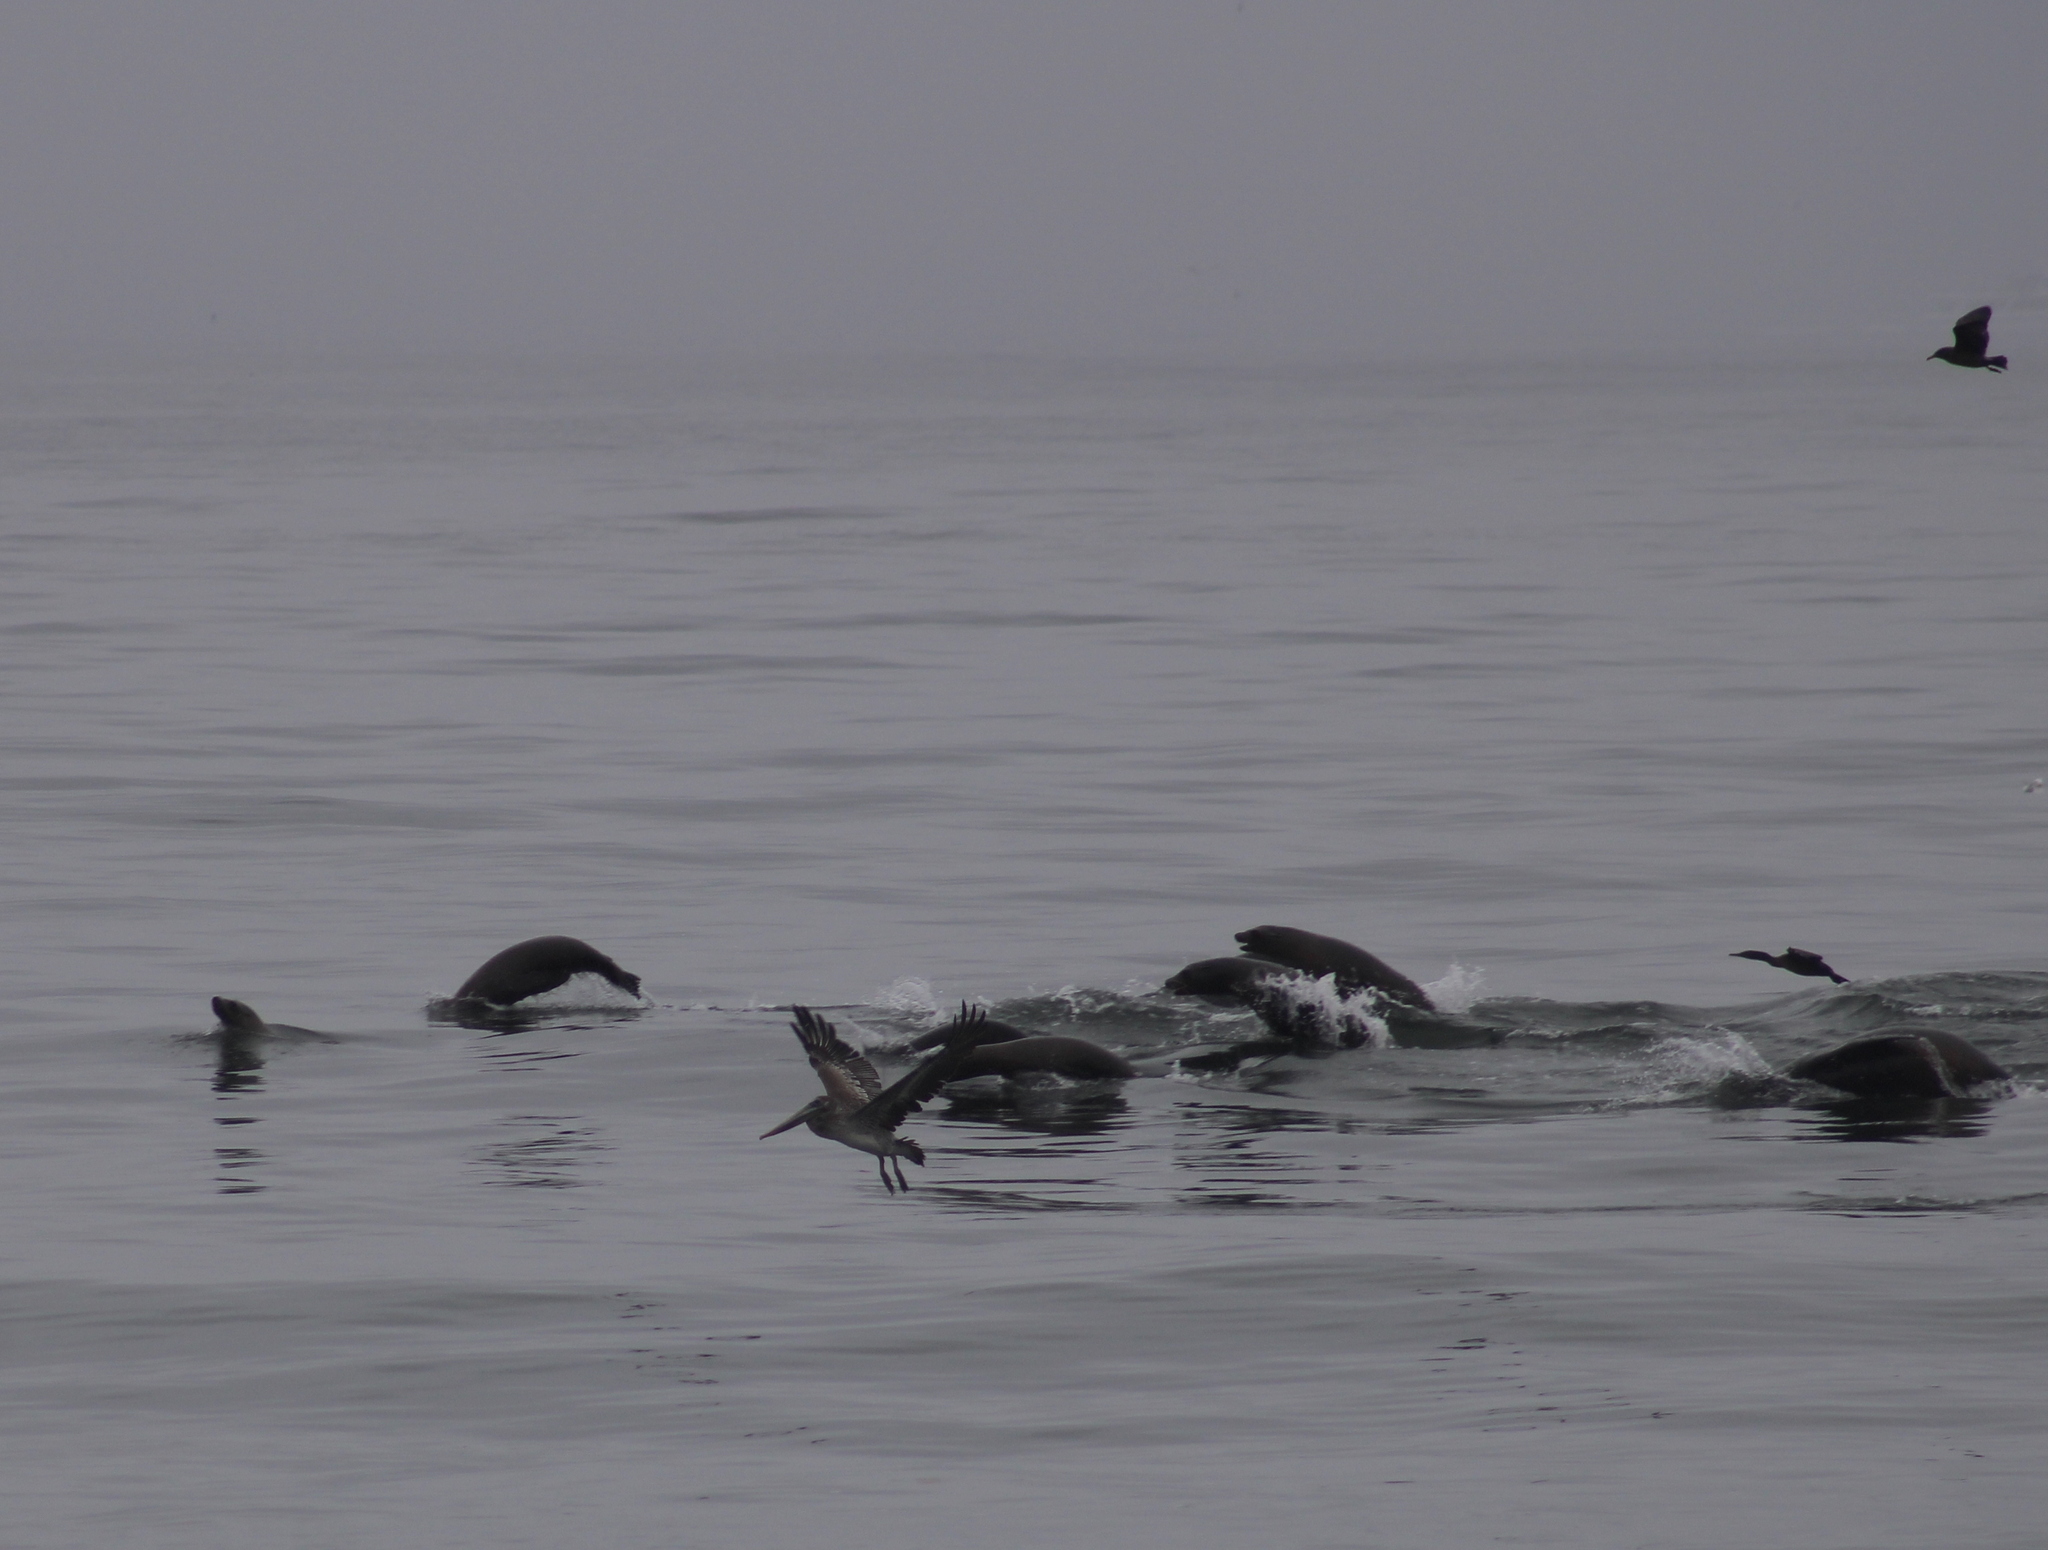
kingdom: Animalia
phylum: Chordata
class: Mammalia
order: Carnivora
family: Otariidae
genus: Zalophus
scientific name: Zalophus californianus
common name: California sea lion
